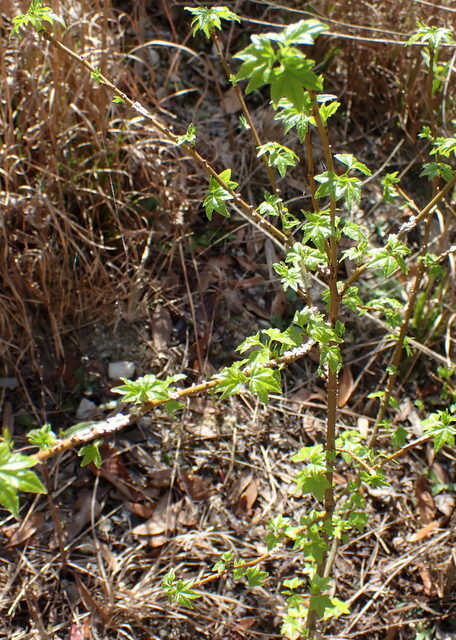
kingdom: Plantae
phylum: Tracheophyta
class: Magnoliopsida
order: Saxifragales
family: Altingiaceae
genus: Liquidambar
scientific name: Liquidambar styraciflua
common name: Sweet gum
